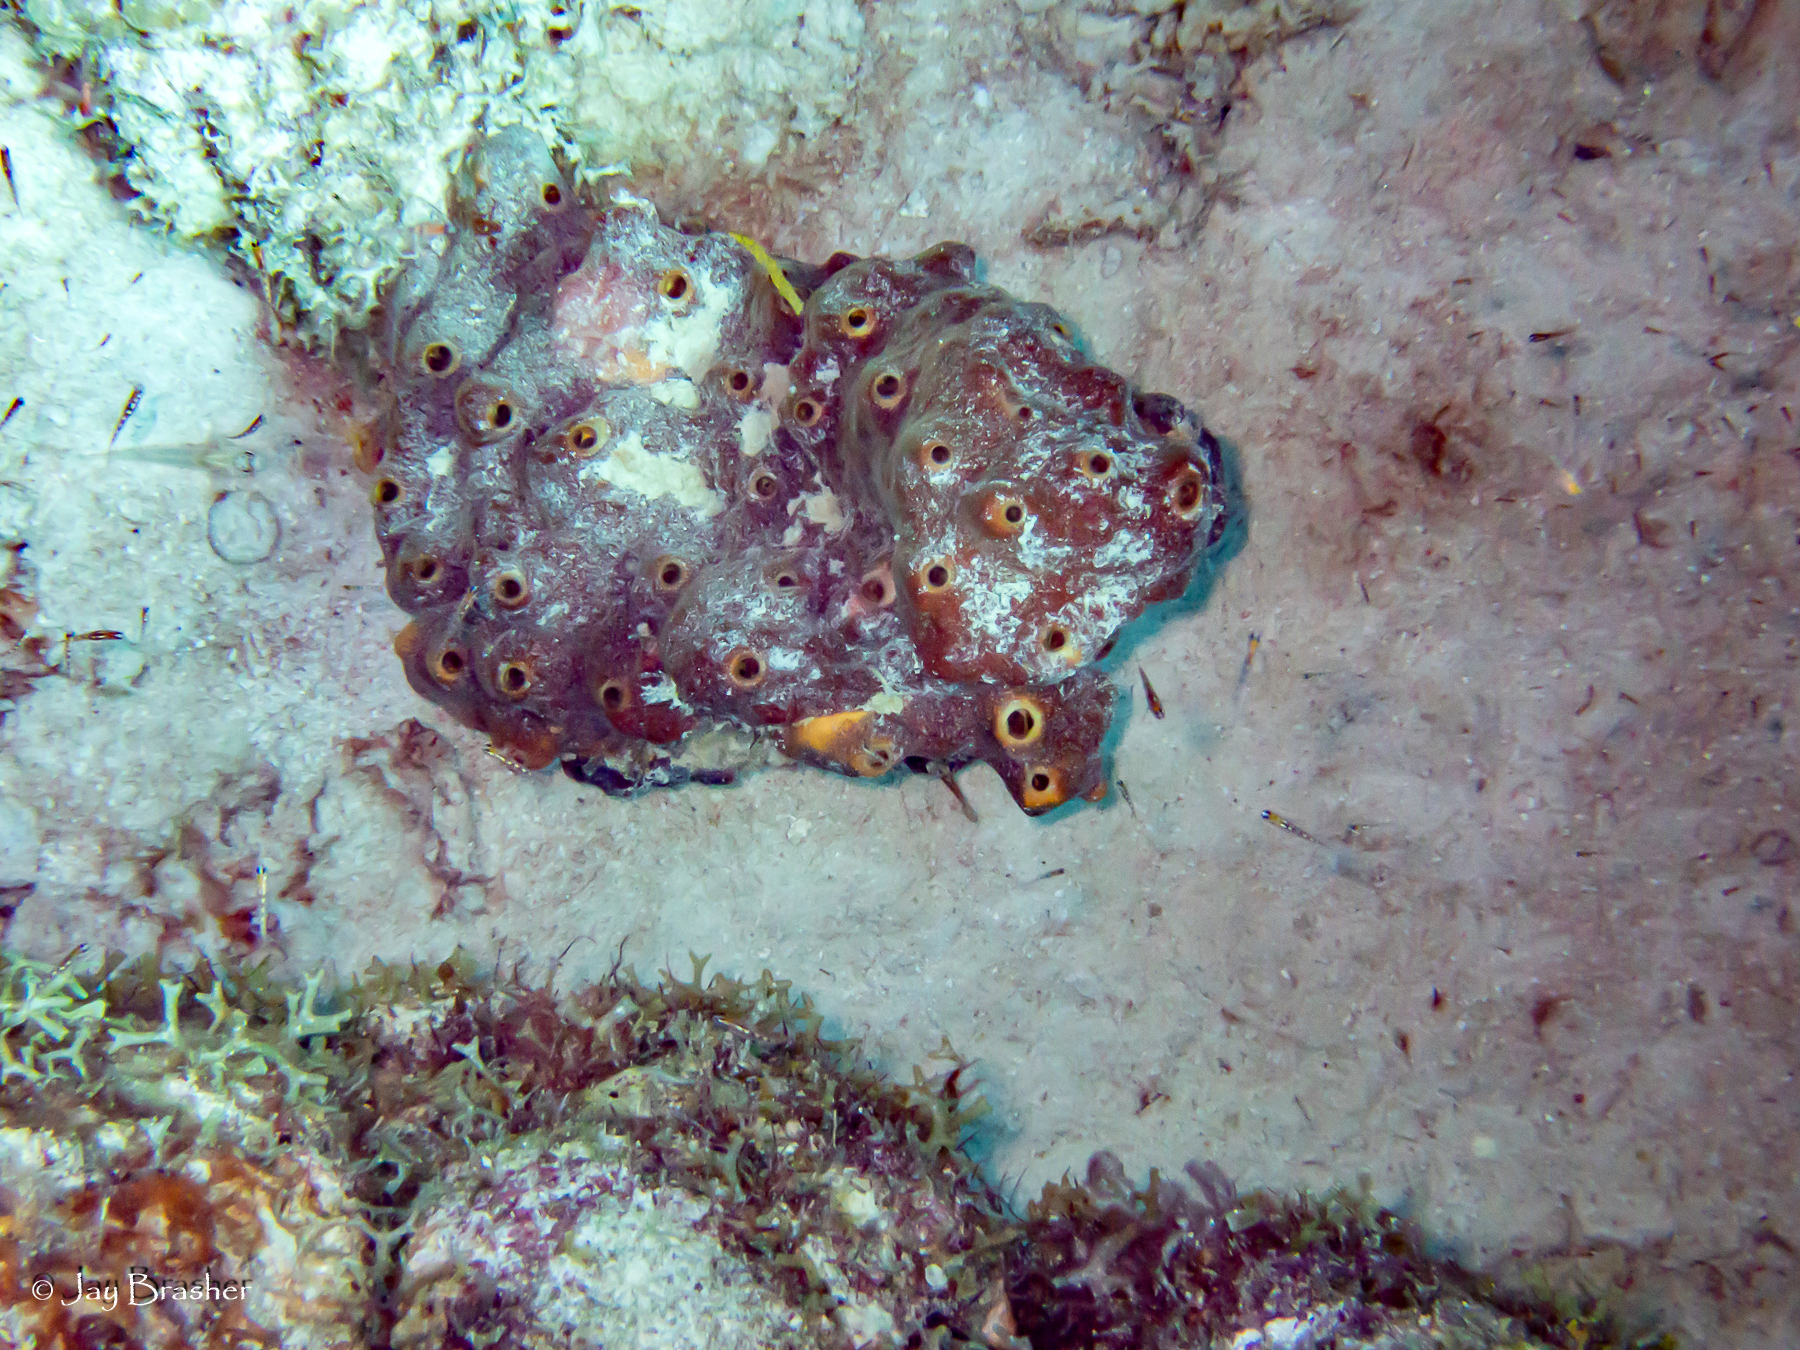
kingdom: Animalia
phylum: Porifera
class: Demospongiae
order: Axinellida
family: Raspailiidae
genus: Ectyoplasia
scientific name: Ectyoplasia ferox
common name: Brown encrusting octopus sponge
